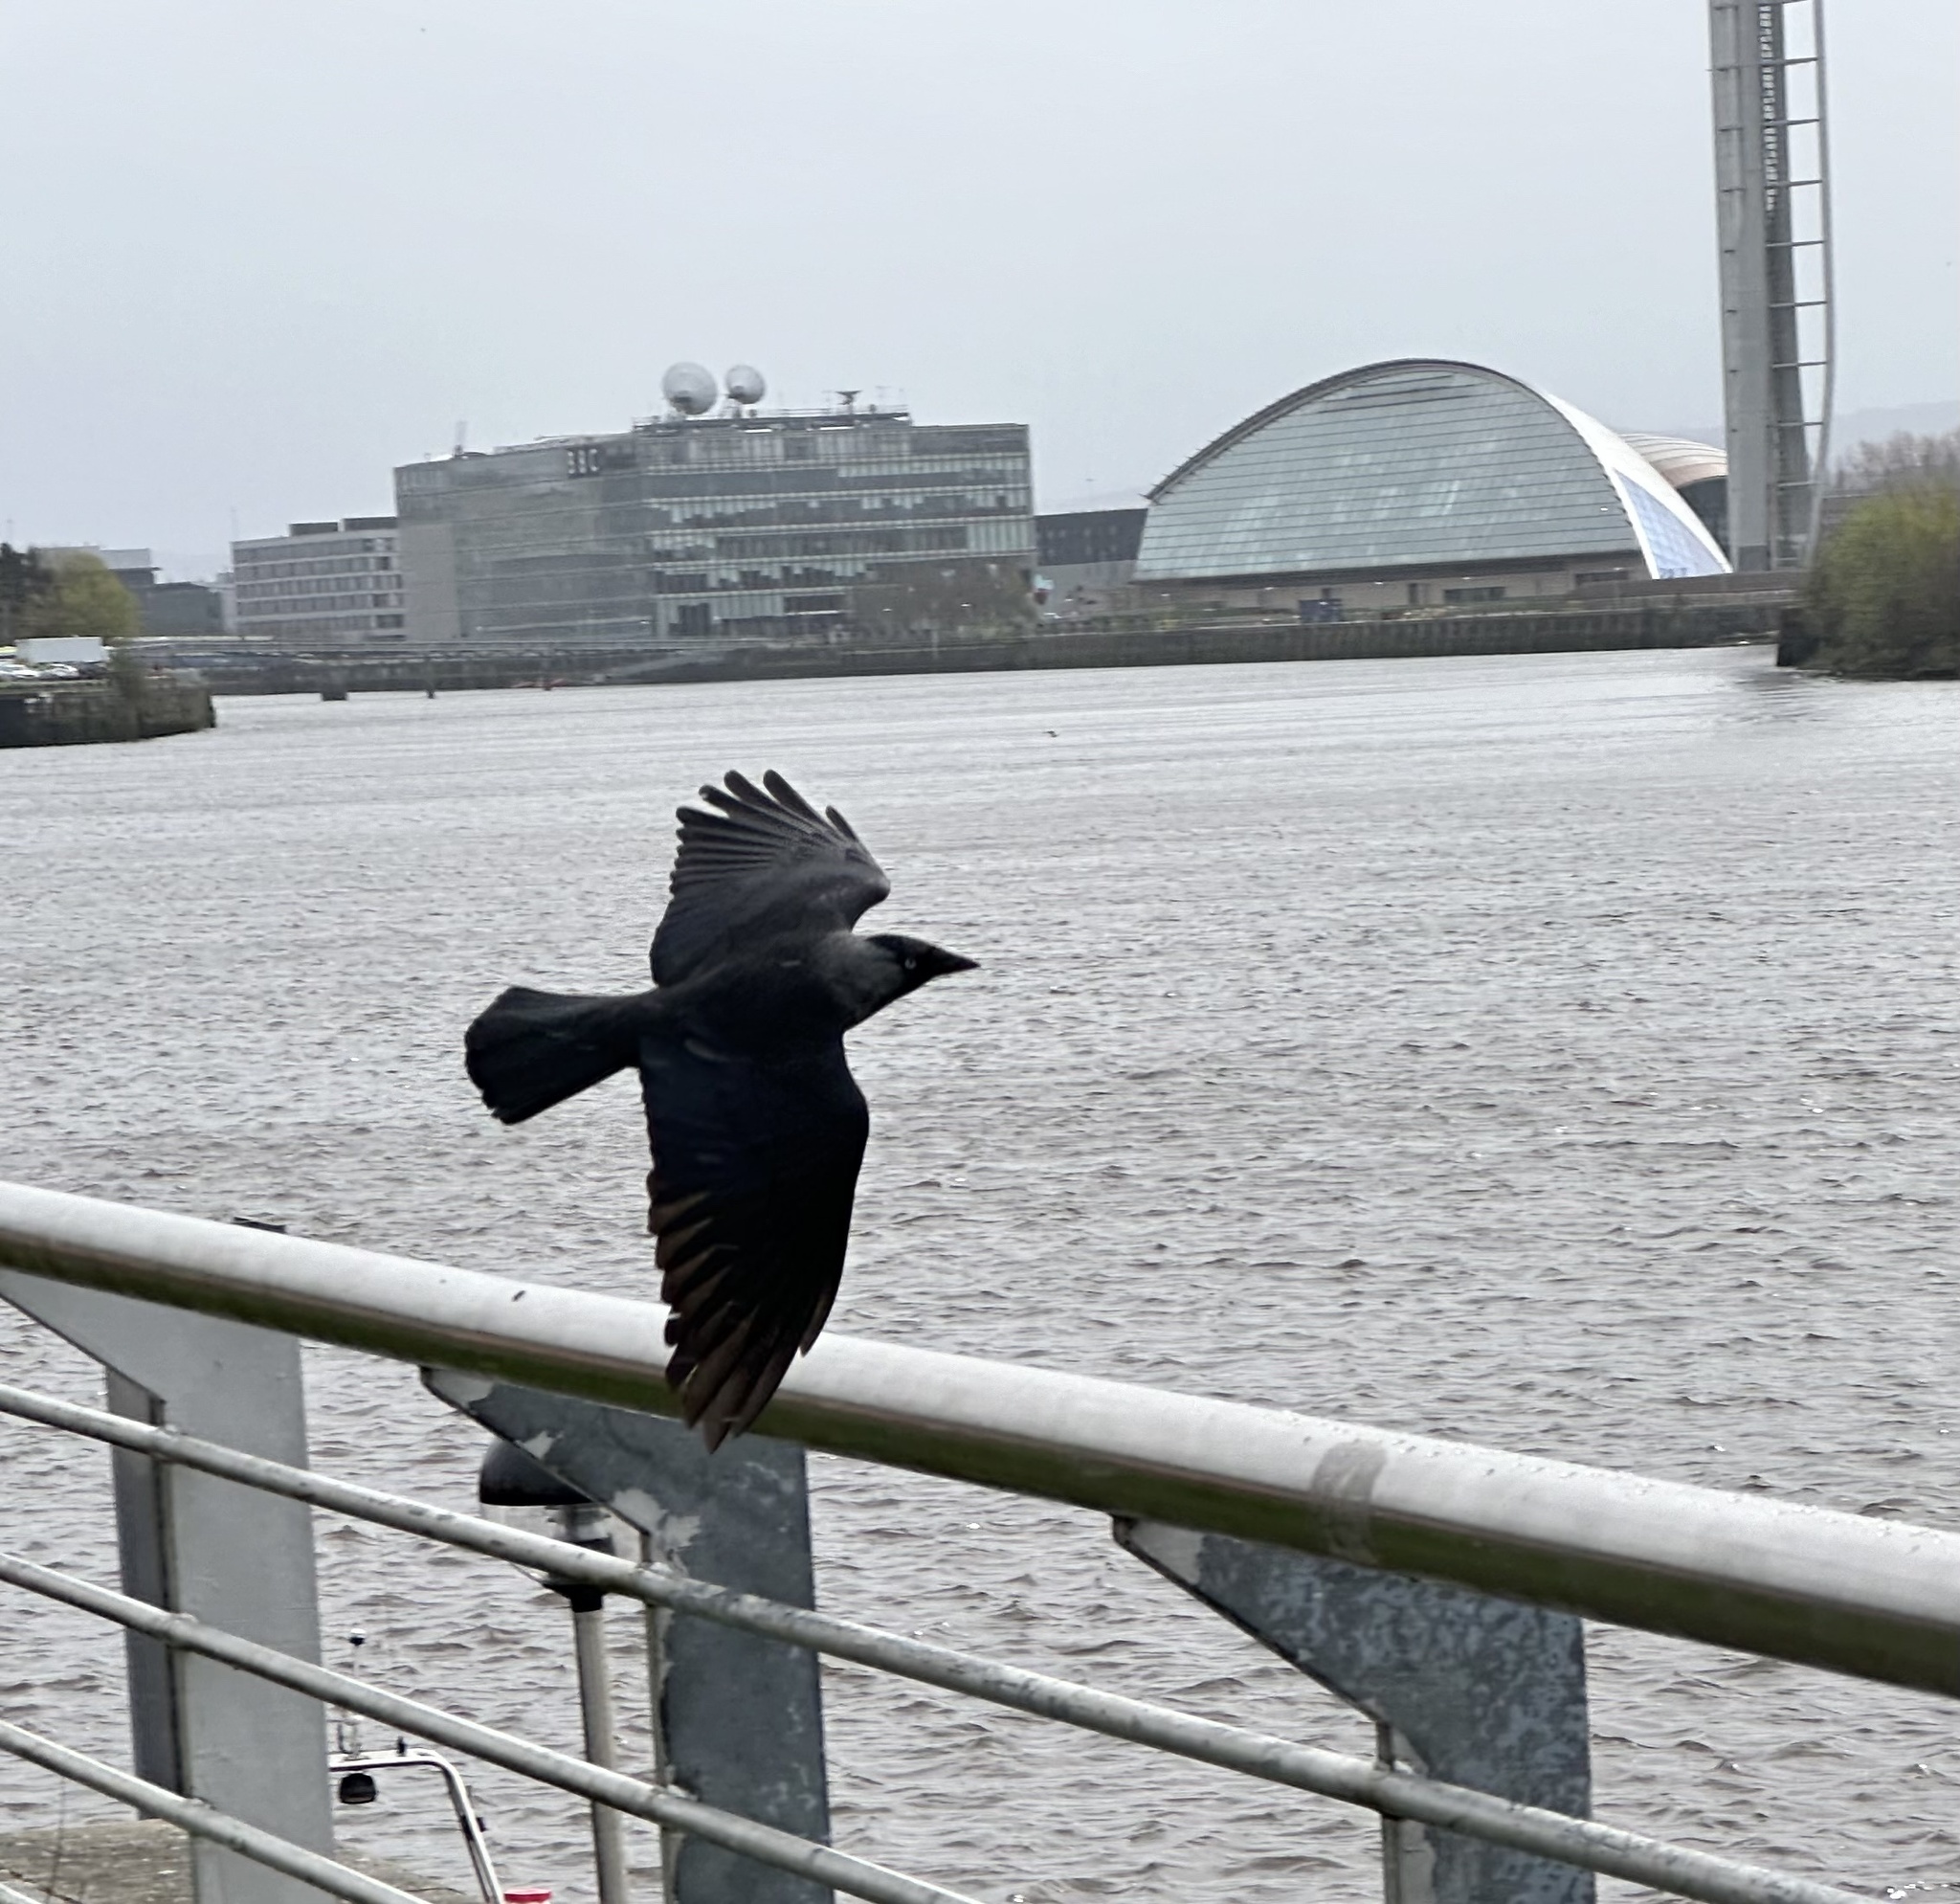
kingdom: Animalia
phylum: Chordata
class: Aves
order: Passeriformes
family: Corvidae
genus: Coloeus
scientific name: Coloeus monedula
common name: Western jackdaw
